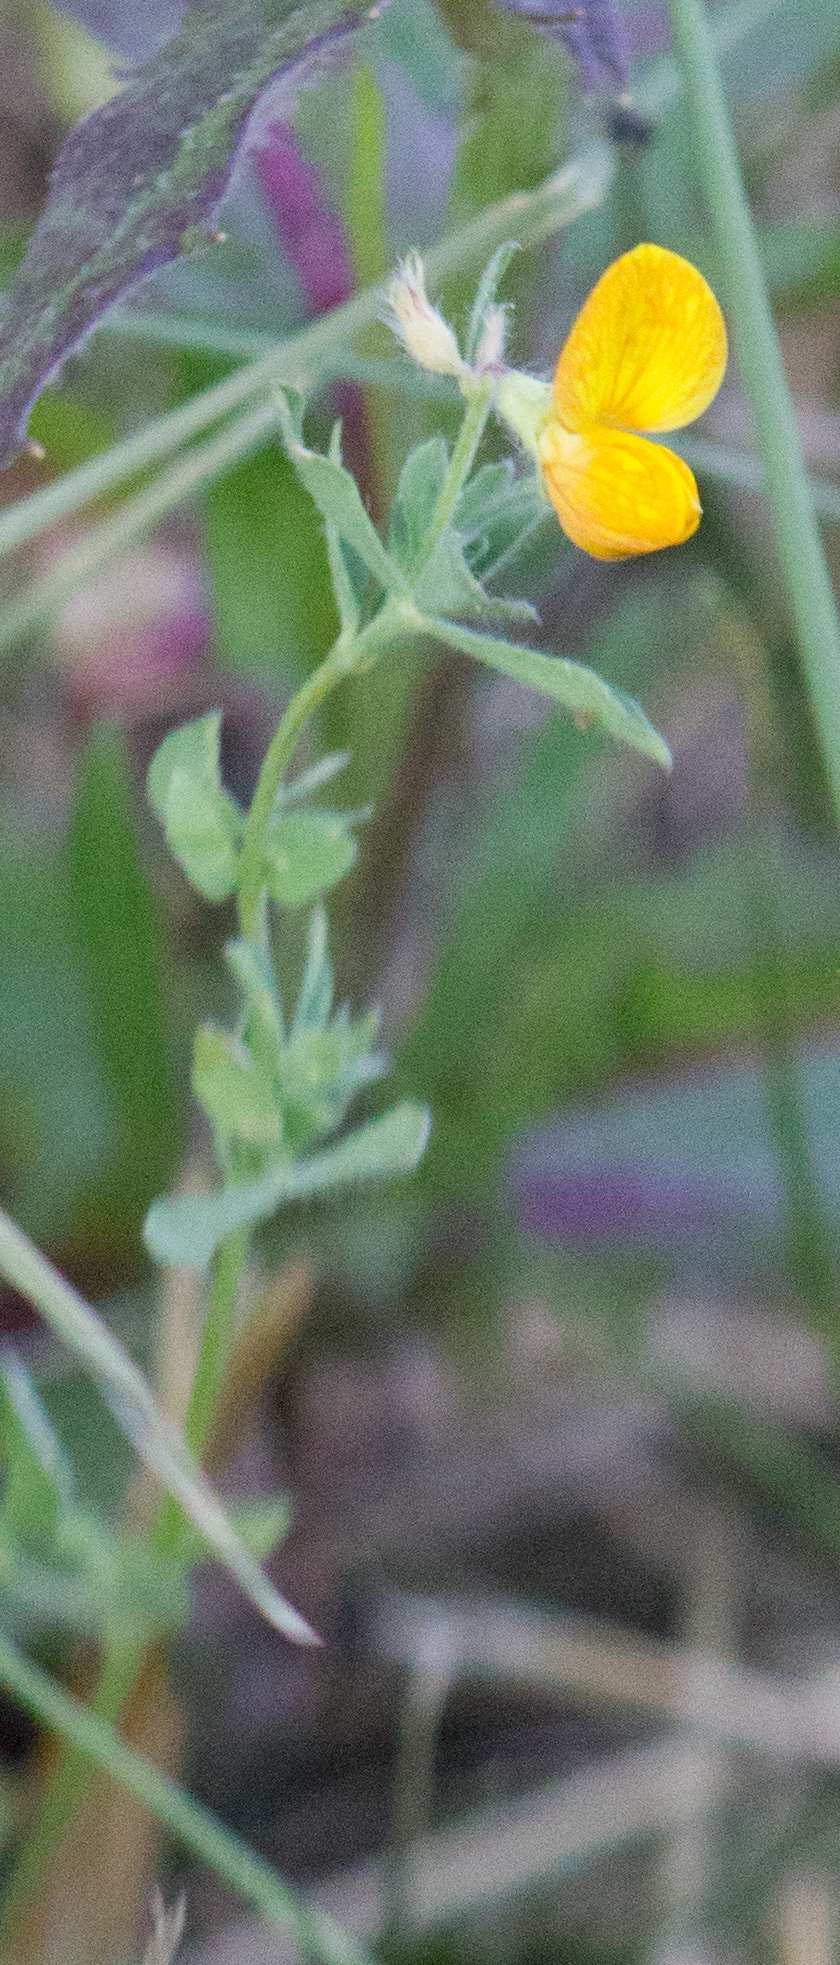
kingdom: Plantae
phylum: Tracheophyta
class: Magnoliopsida
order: Fabales
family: Fabaceae
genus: Lotus
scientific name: Lotus corniculatus
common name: Common bird's-foot-trefoil
